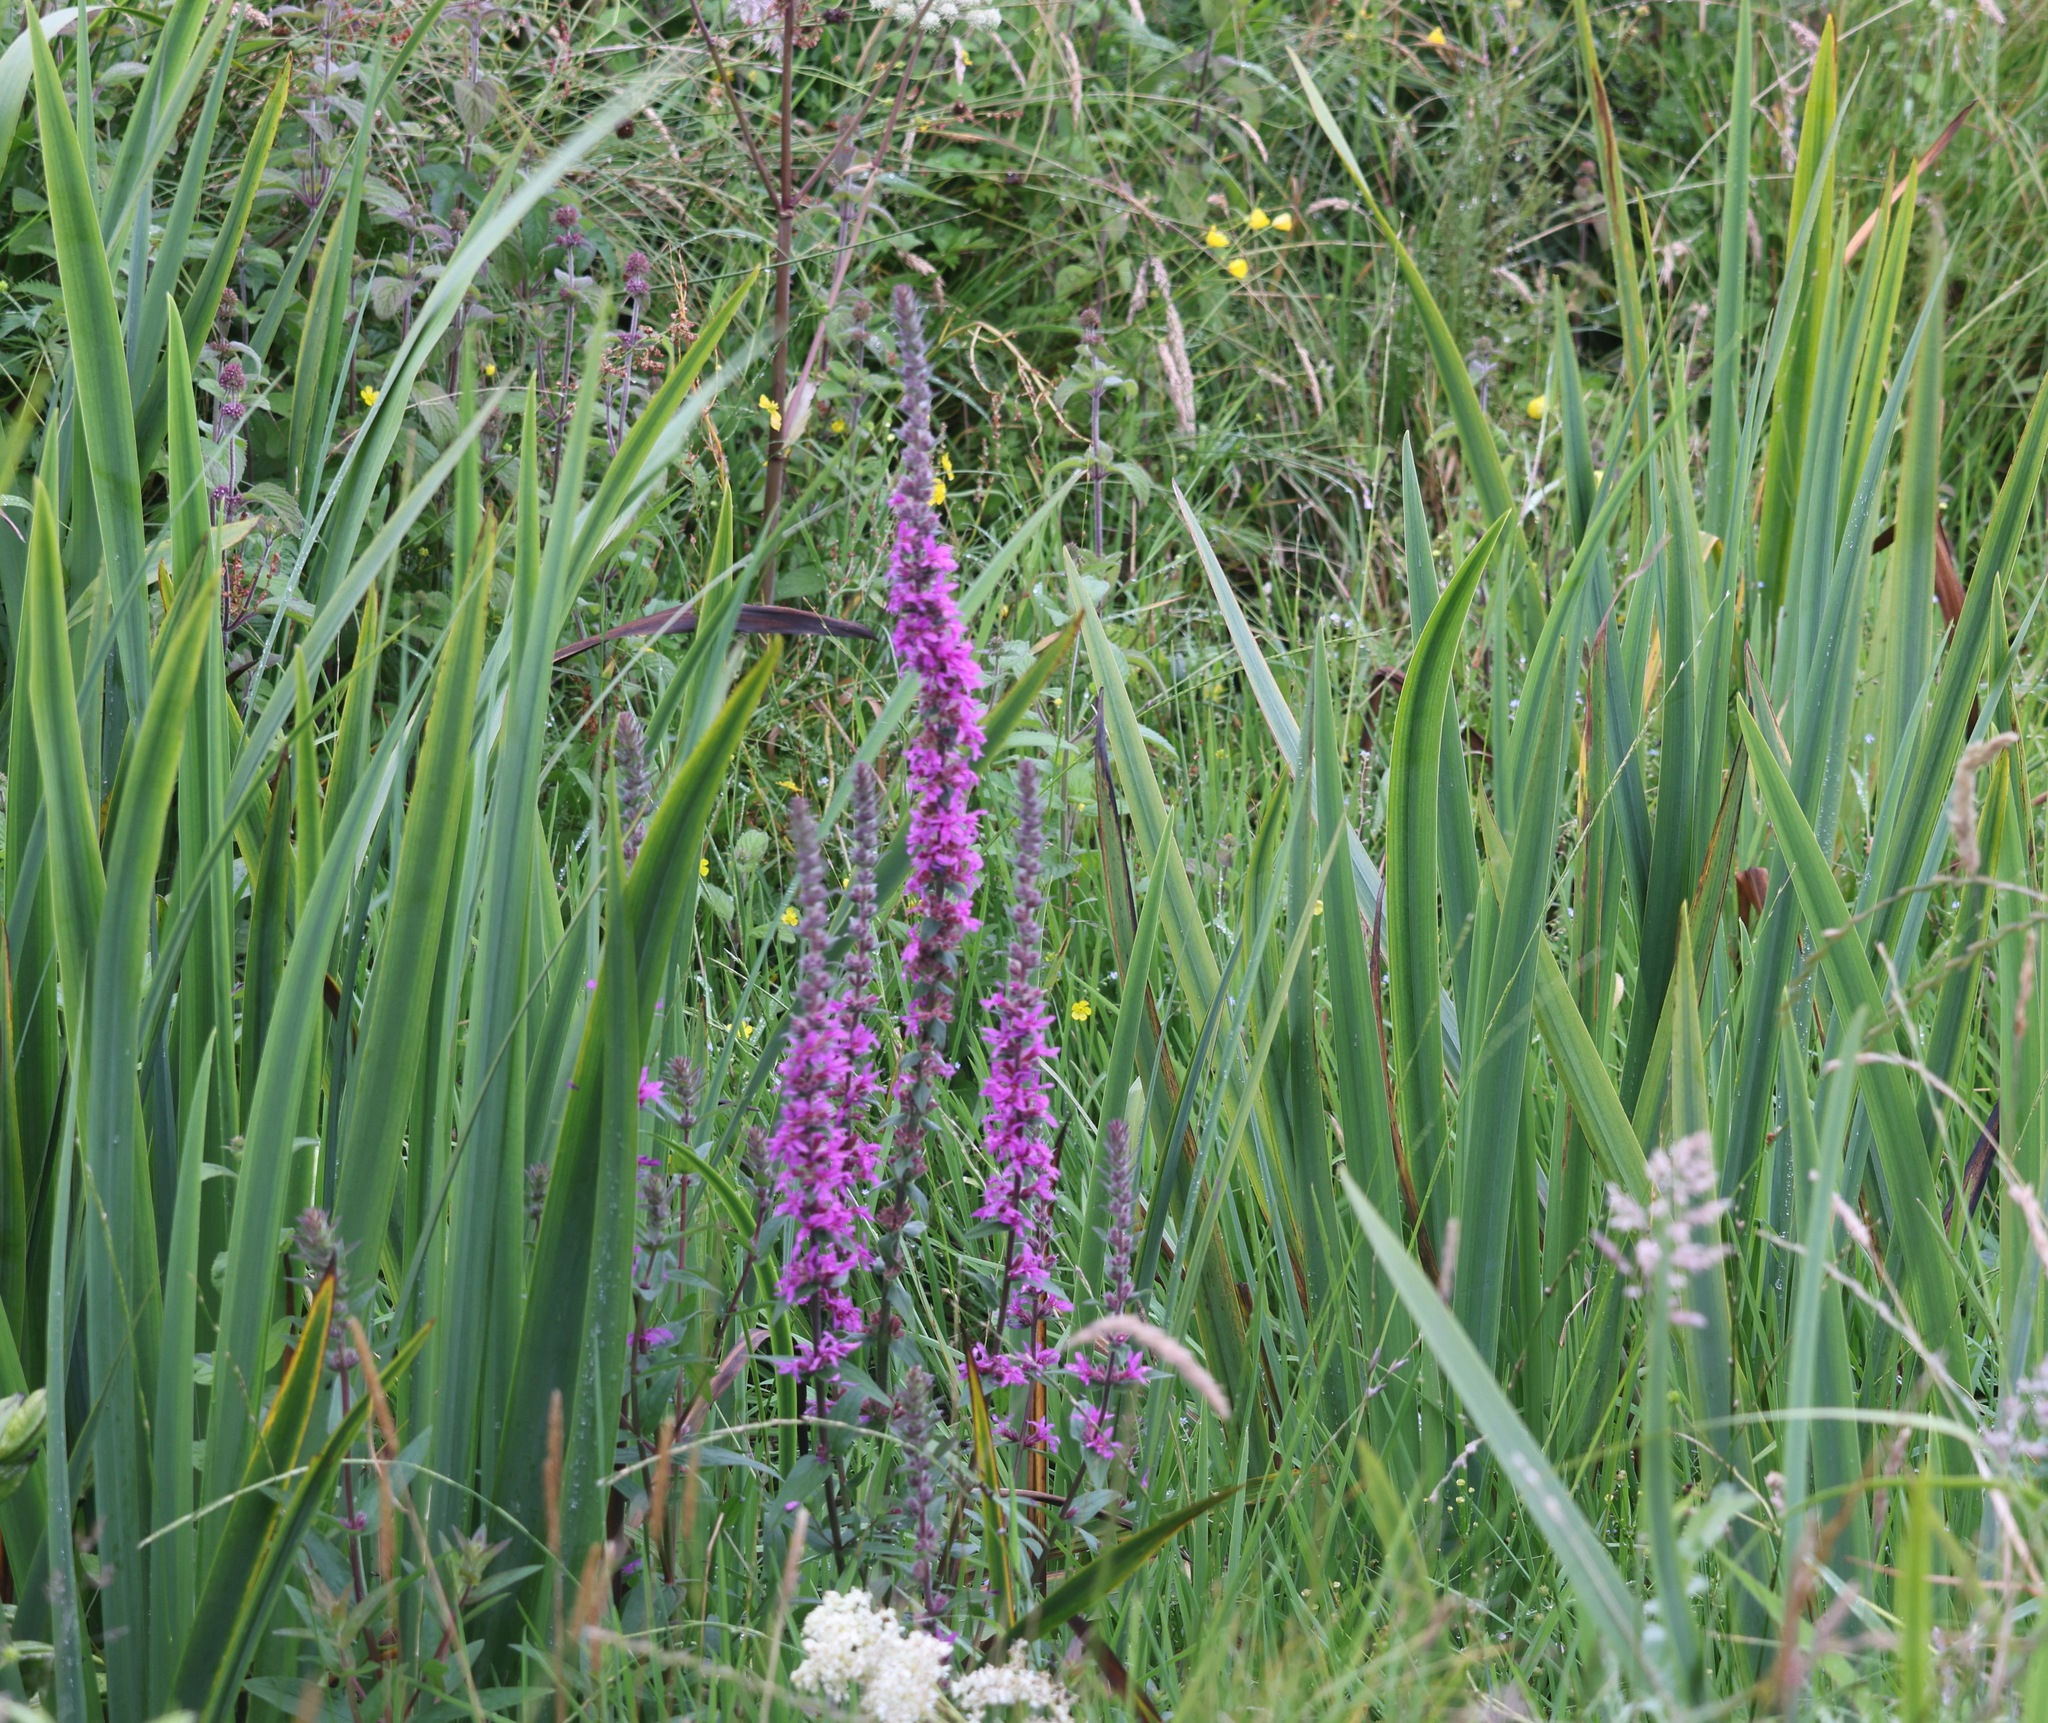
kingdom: Plantae
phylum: Tracheophyta
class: Magnoliopsida
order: Myrtales
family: Lythraceae
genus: Lythrum
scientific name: Lythrum salicaria
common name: Purple loosestrife
